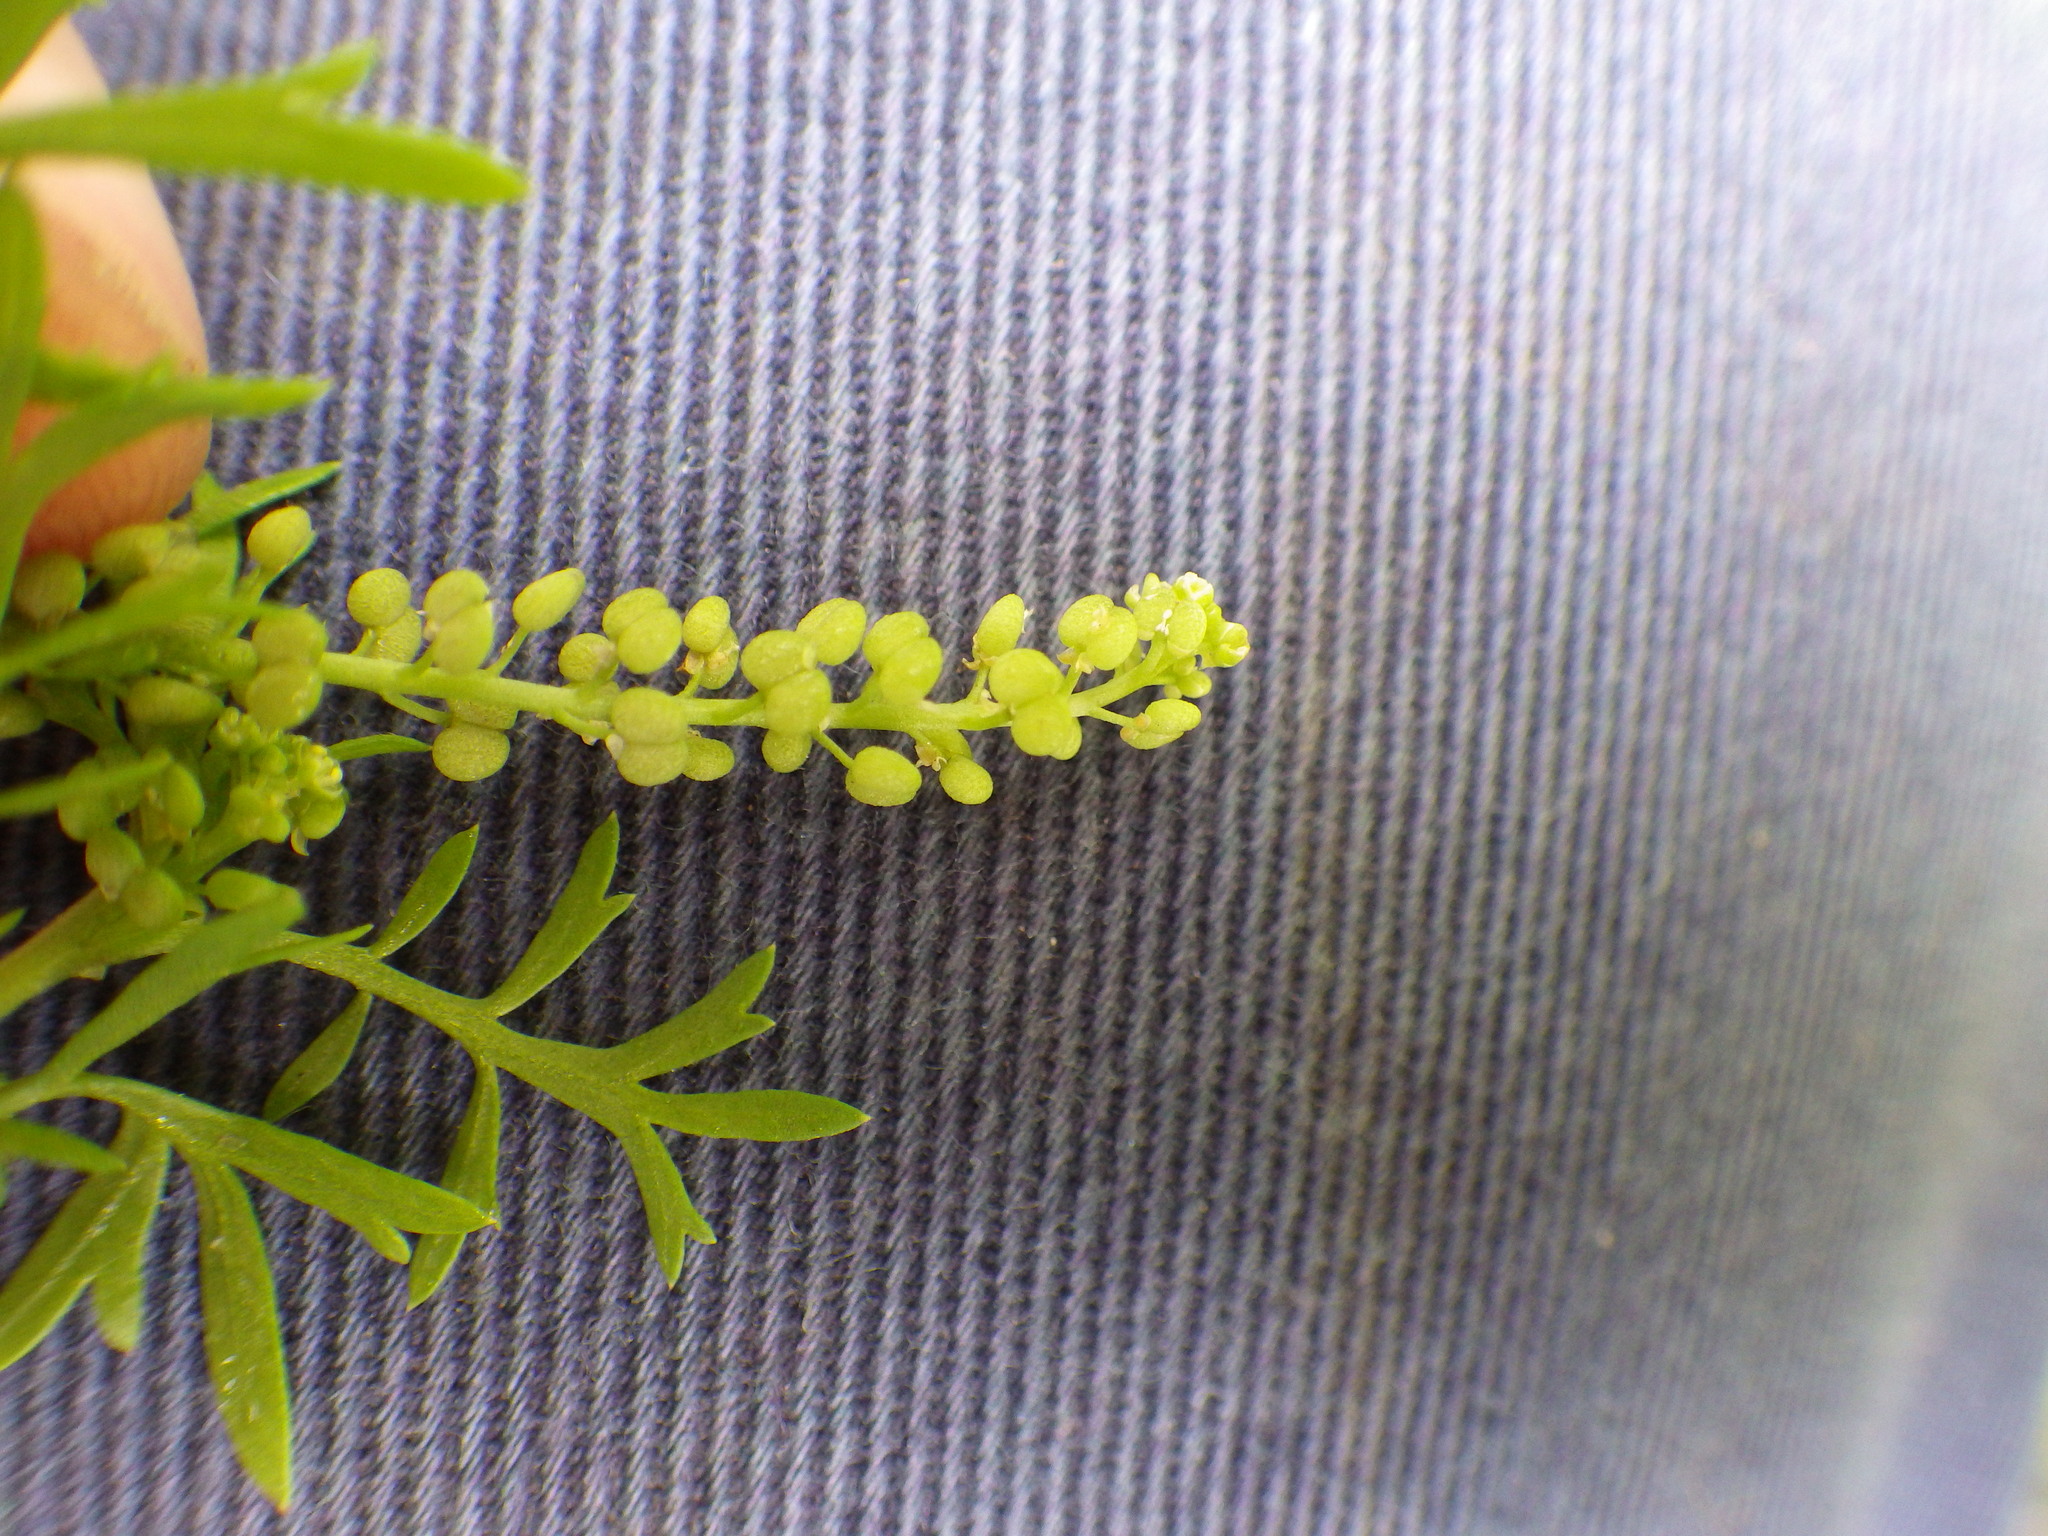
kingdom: Plantae
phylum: Tracheophyta
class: Magnoliopsida
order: Brassicales
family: Brassicaceae
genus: Lepidium
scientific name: Lepidium didymum
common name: Lesser swinecress
